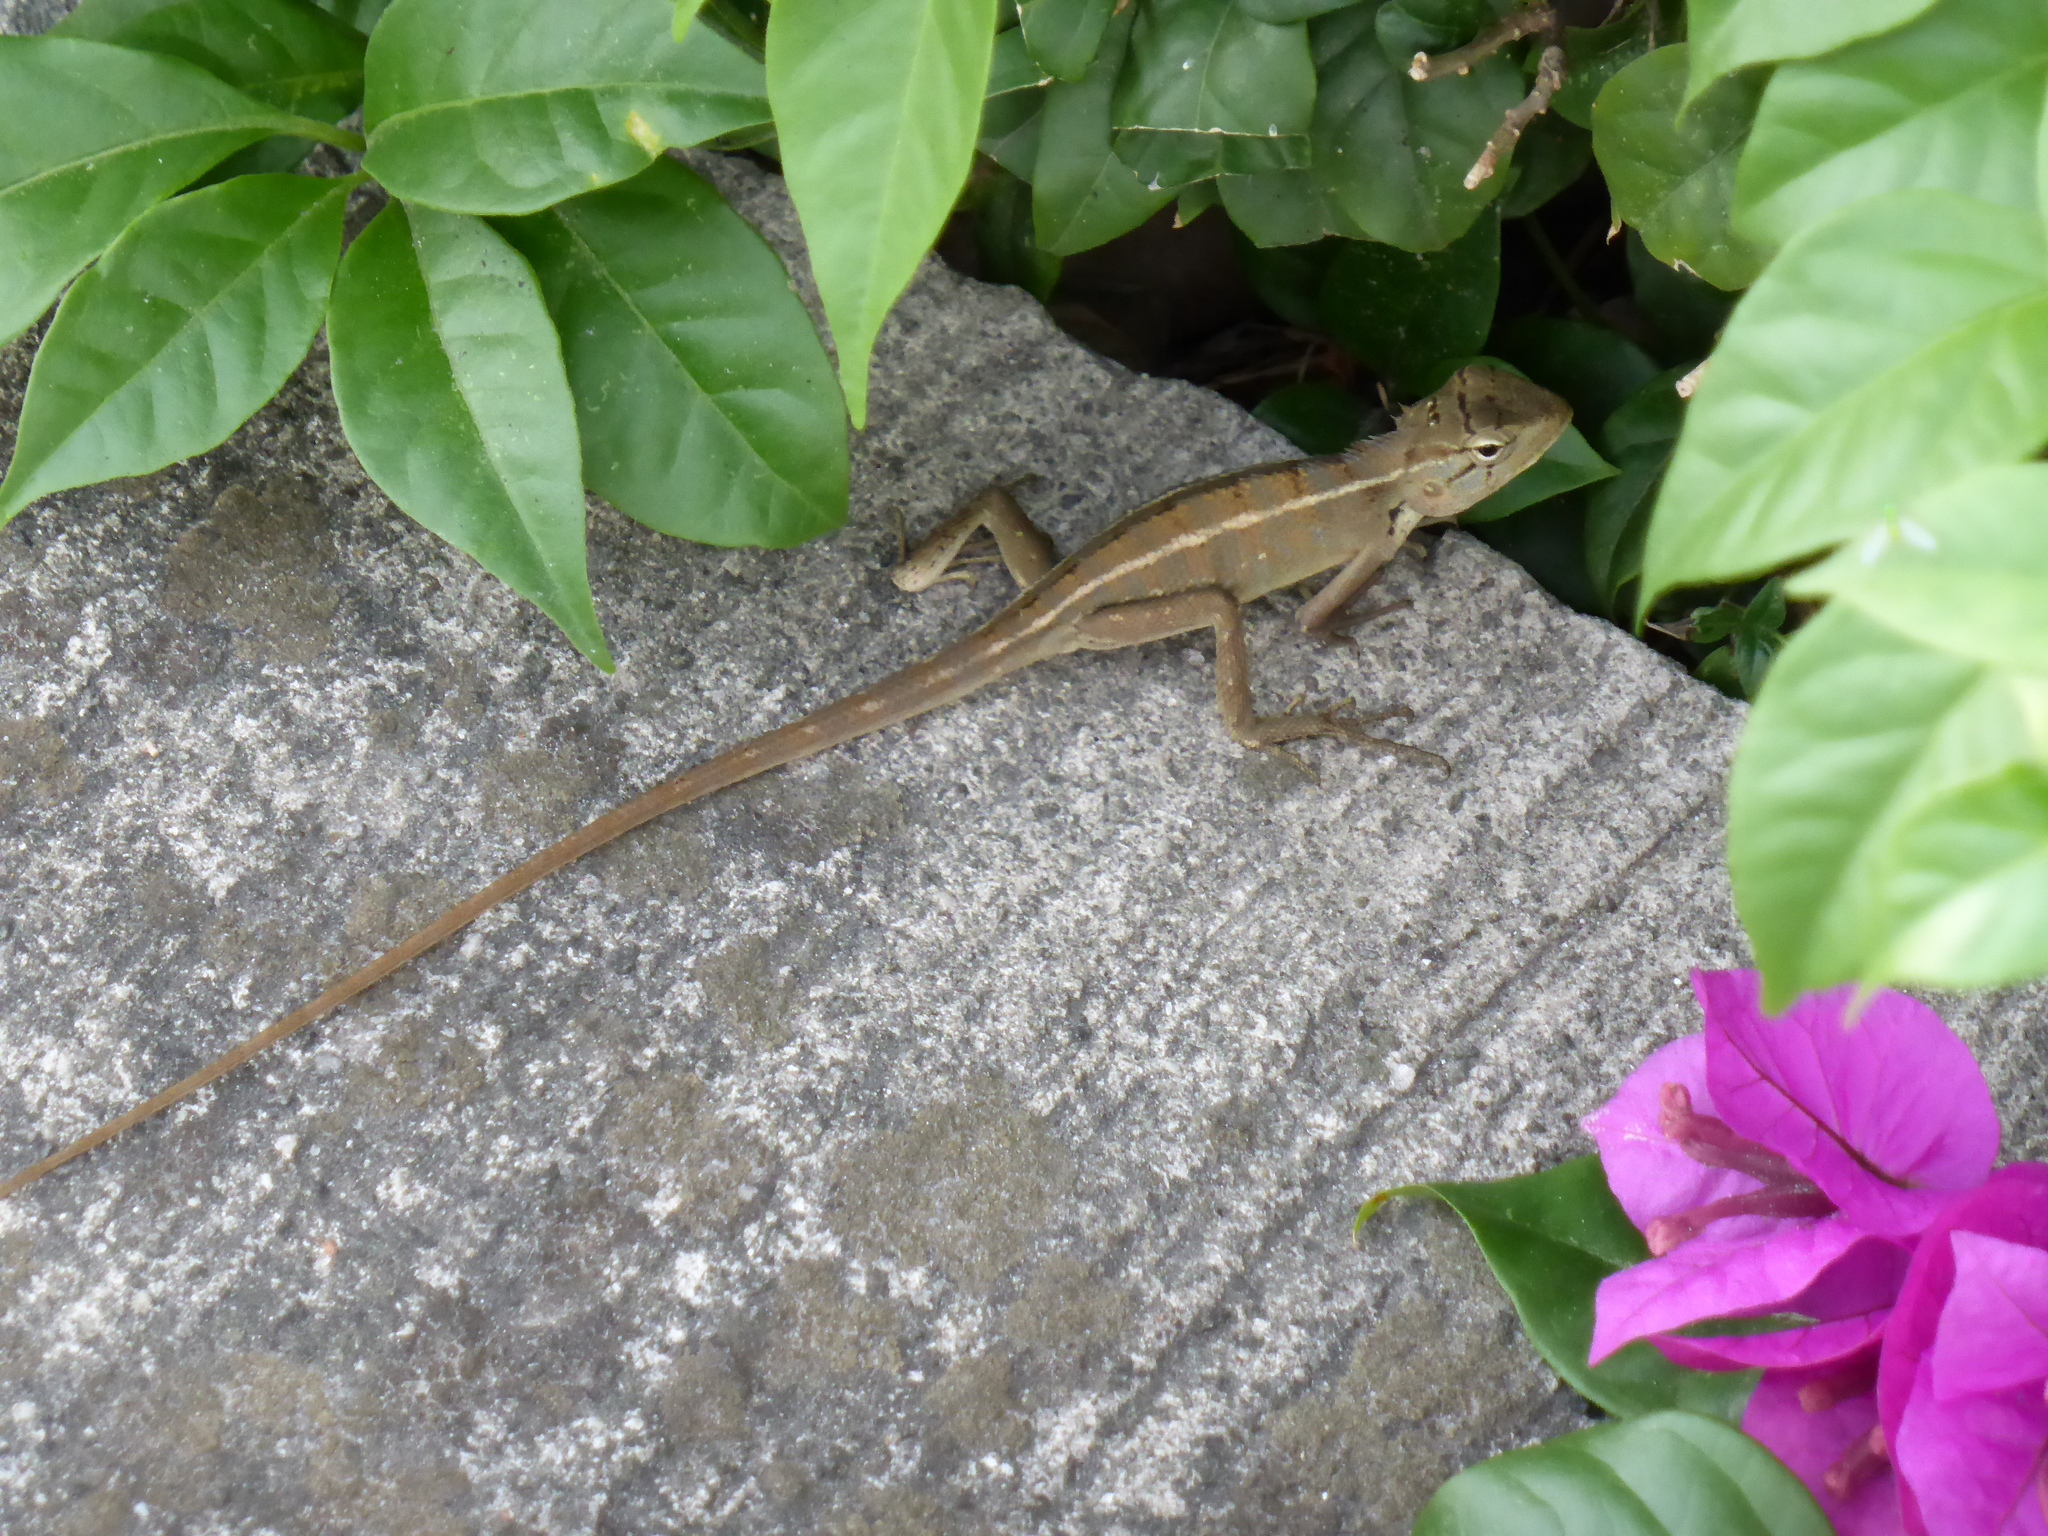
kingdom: Animalia
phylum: Chordata
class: Squamata
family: Agamidae
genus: Calotes
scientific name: Calotes versicolor
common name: Oriental garden lizard
